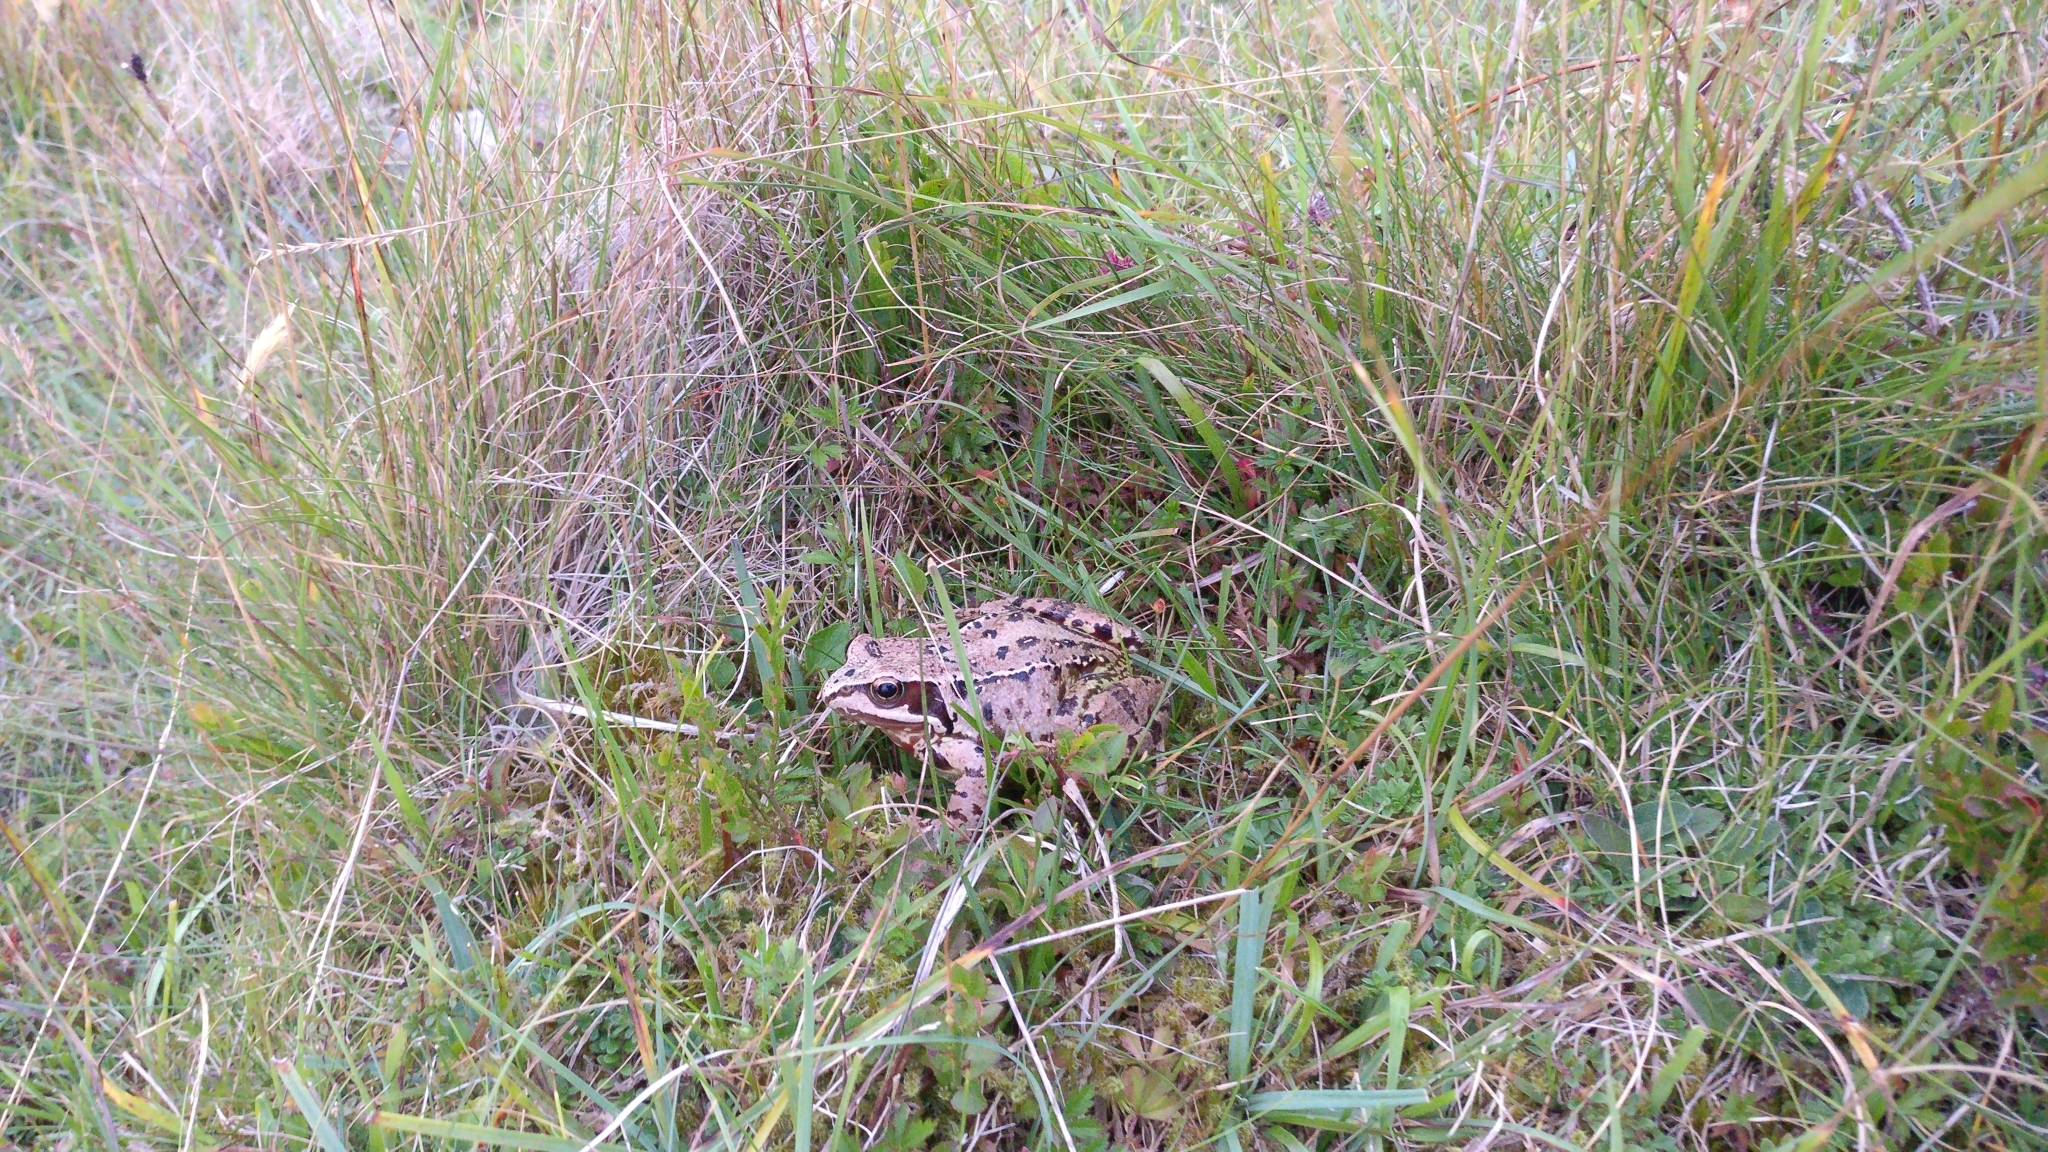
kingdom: Animalia
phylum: Chordata
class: Amphibia
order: Anura
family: Ranidae
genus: Rana
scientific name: Rana temporaria
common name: Common frog
